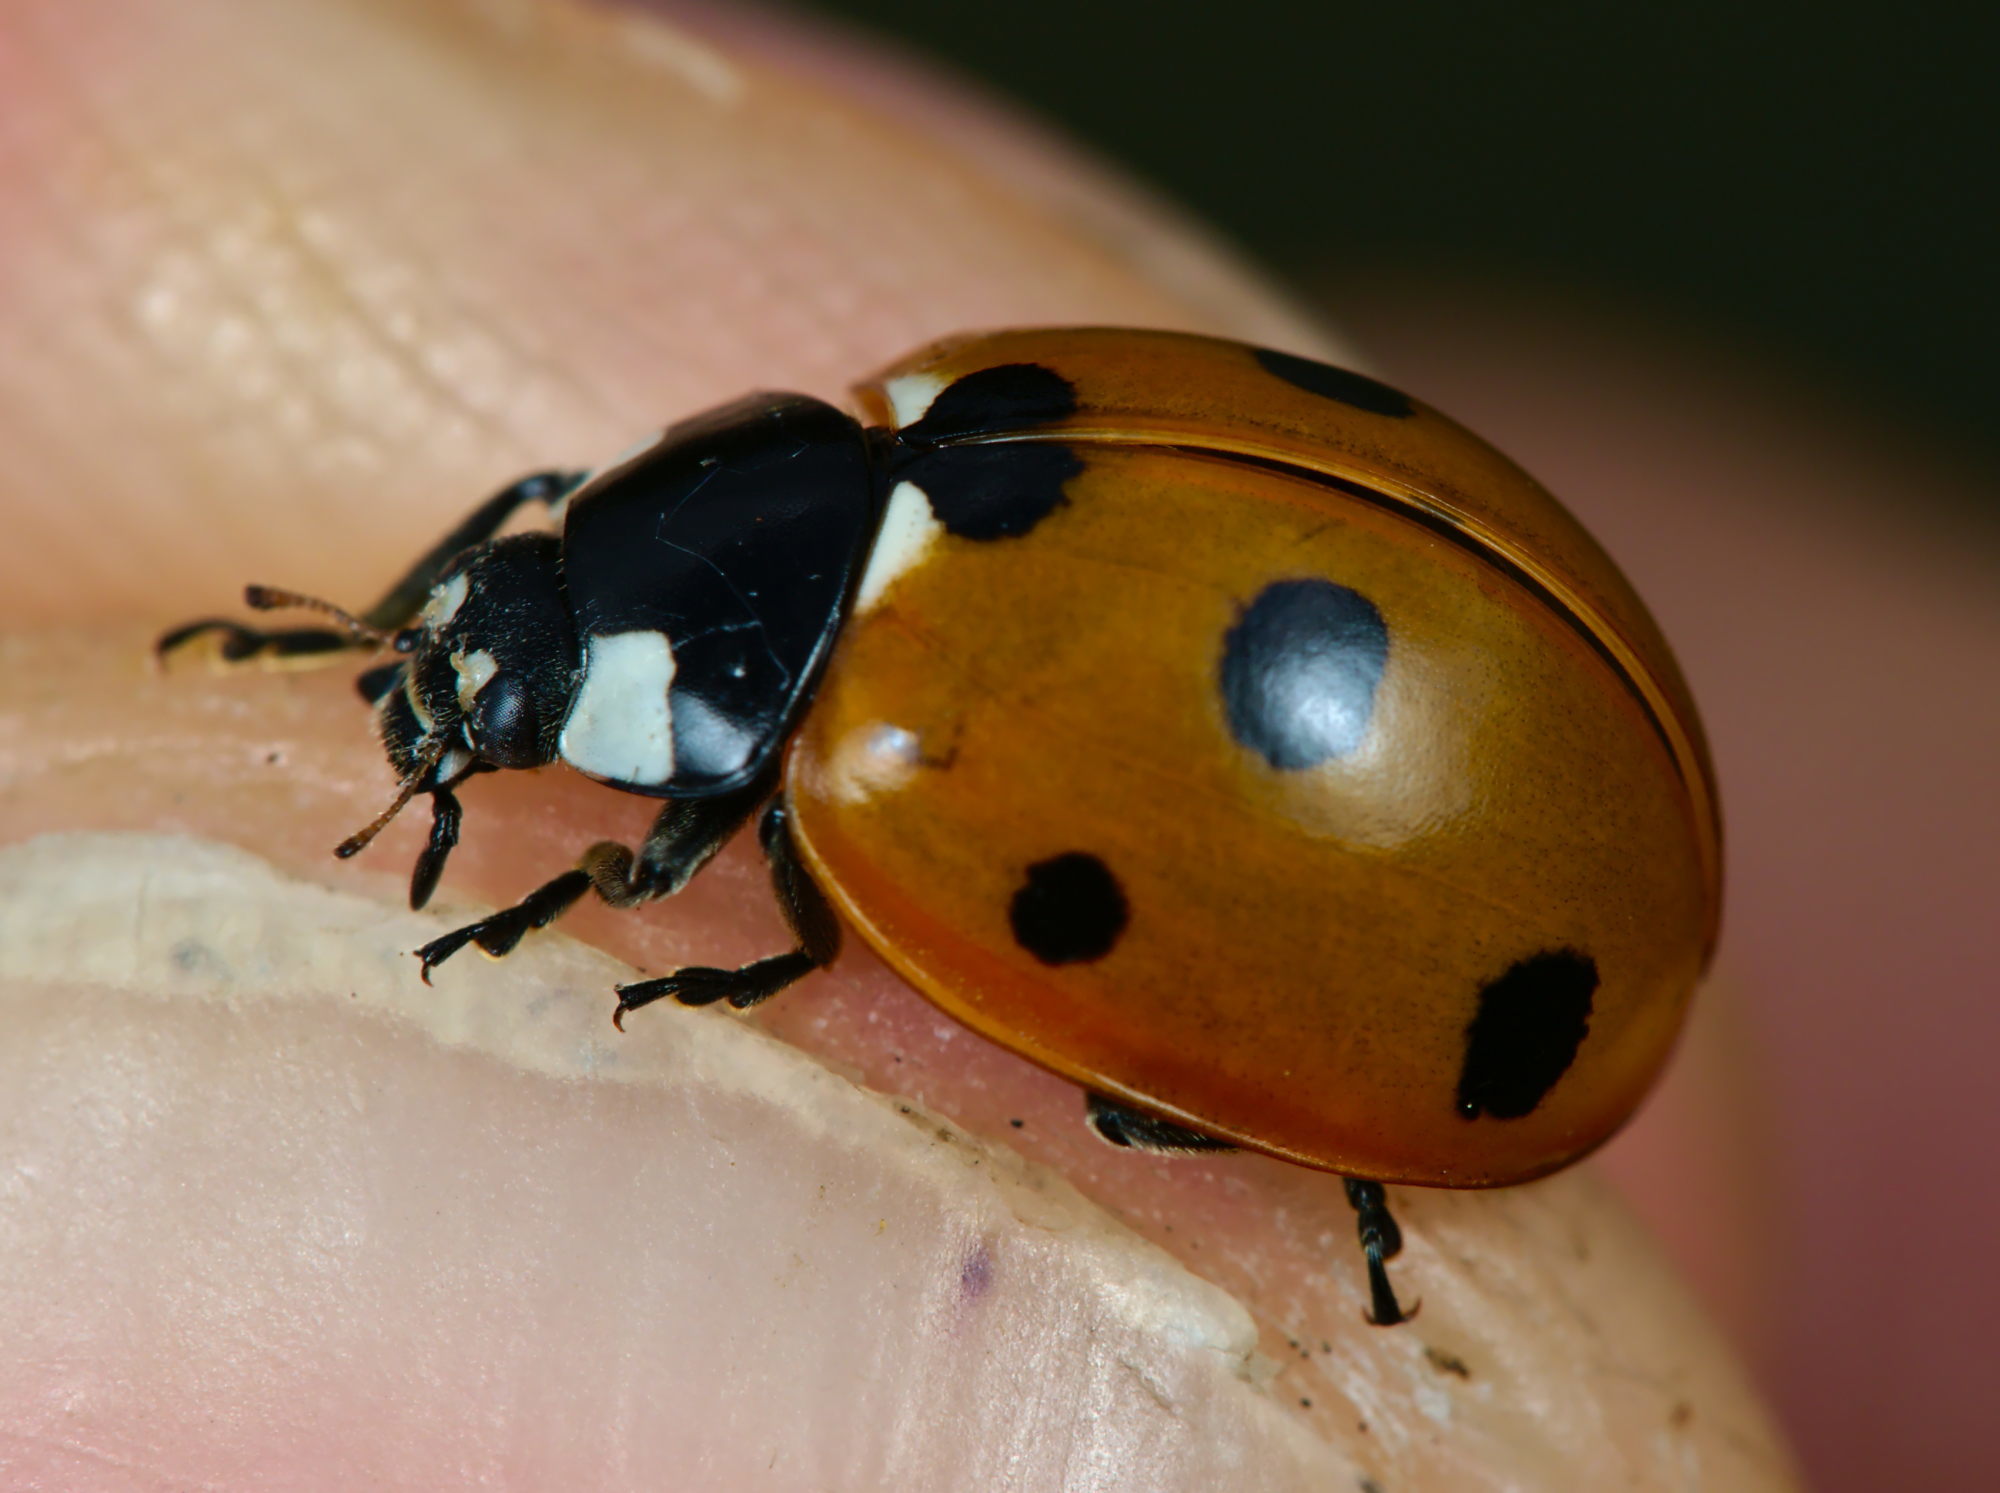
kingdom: Animalia
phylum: Arthropoda
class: Insecta
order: Coleoptera
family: Coccinellidae
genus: Coccinella
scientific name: Coccinella septempunctata
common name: Sevenspotted lady beetle
